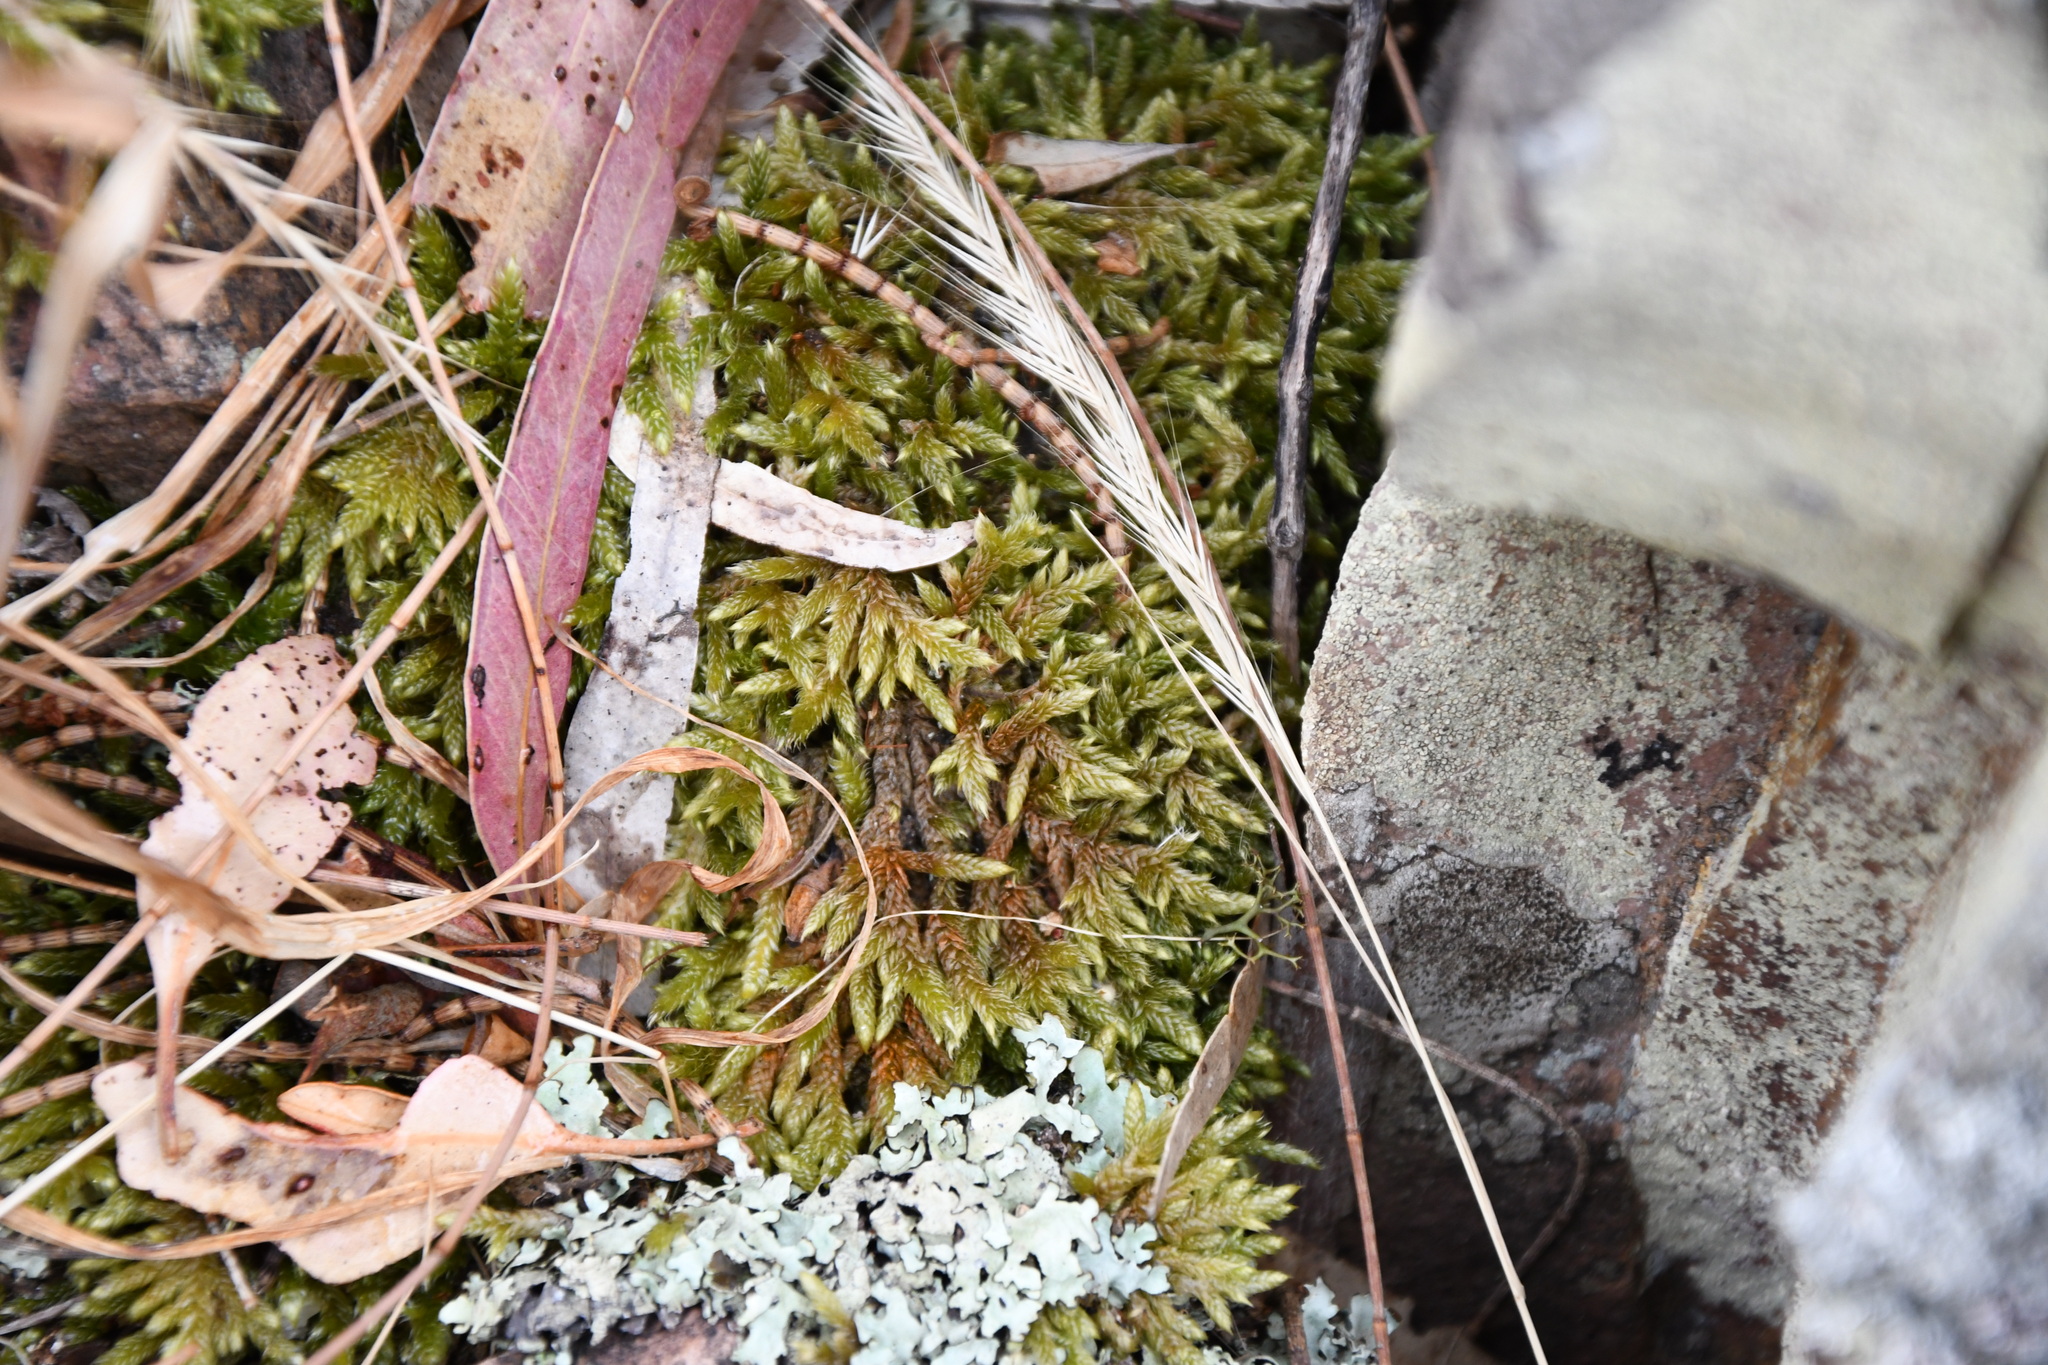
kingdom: Plantae
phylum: Bryophyta
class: Bryopsida
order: Hypnales
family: Hypnaceae
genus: Hypnum
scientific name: Hypnum cupressiforme
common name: Cypress-leaved plait-moss
